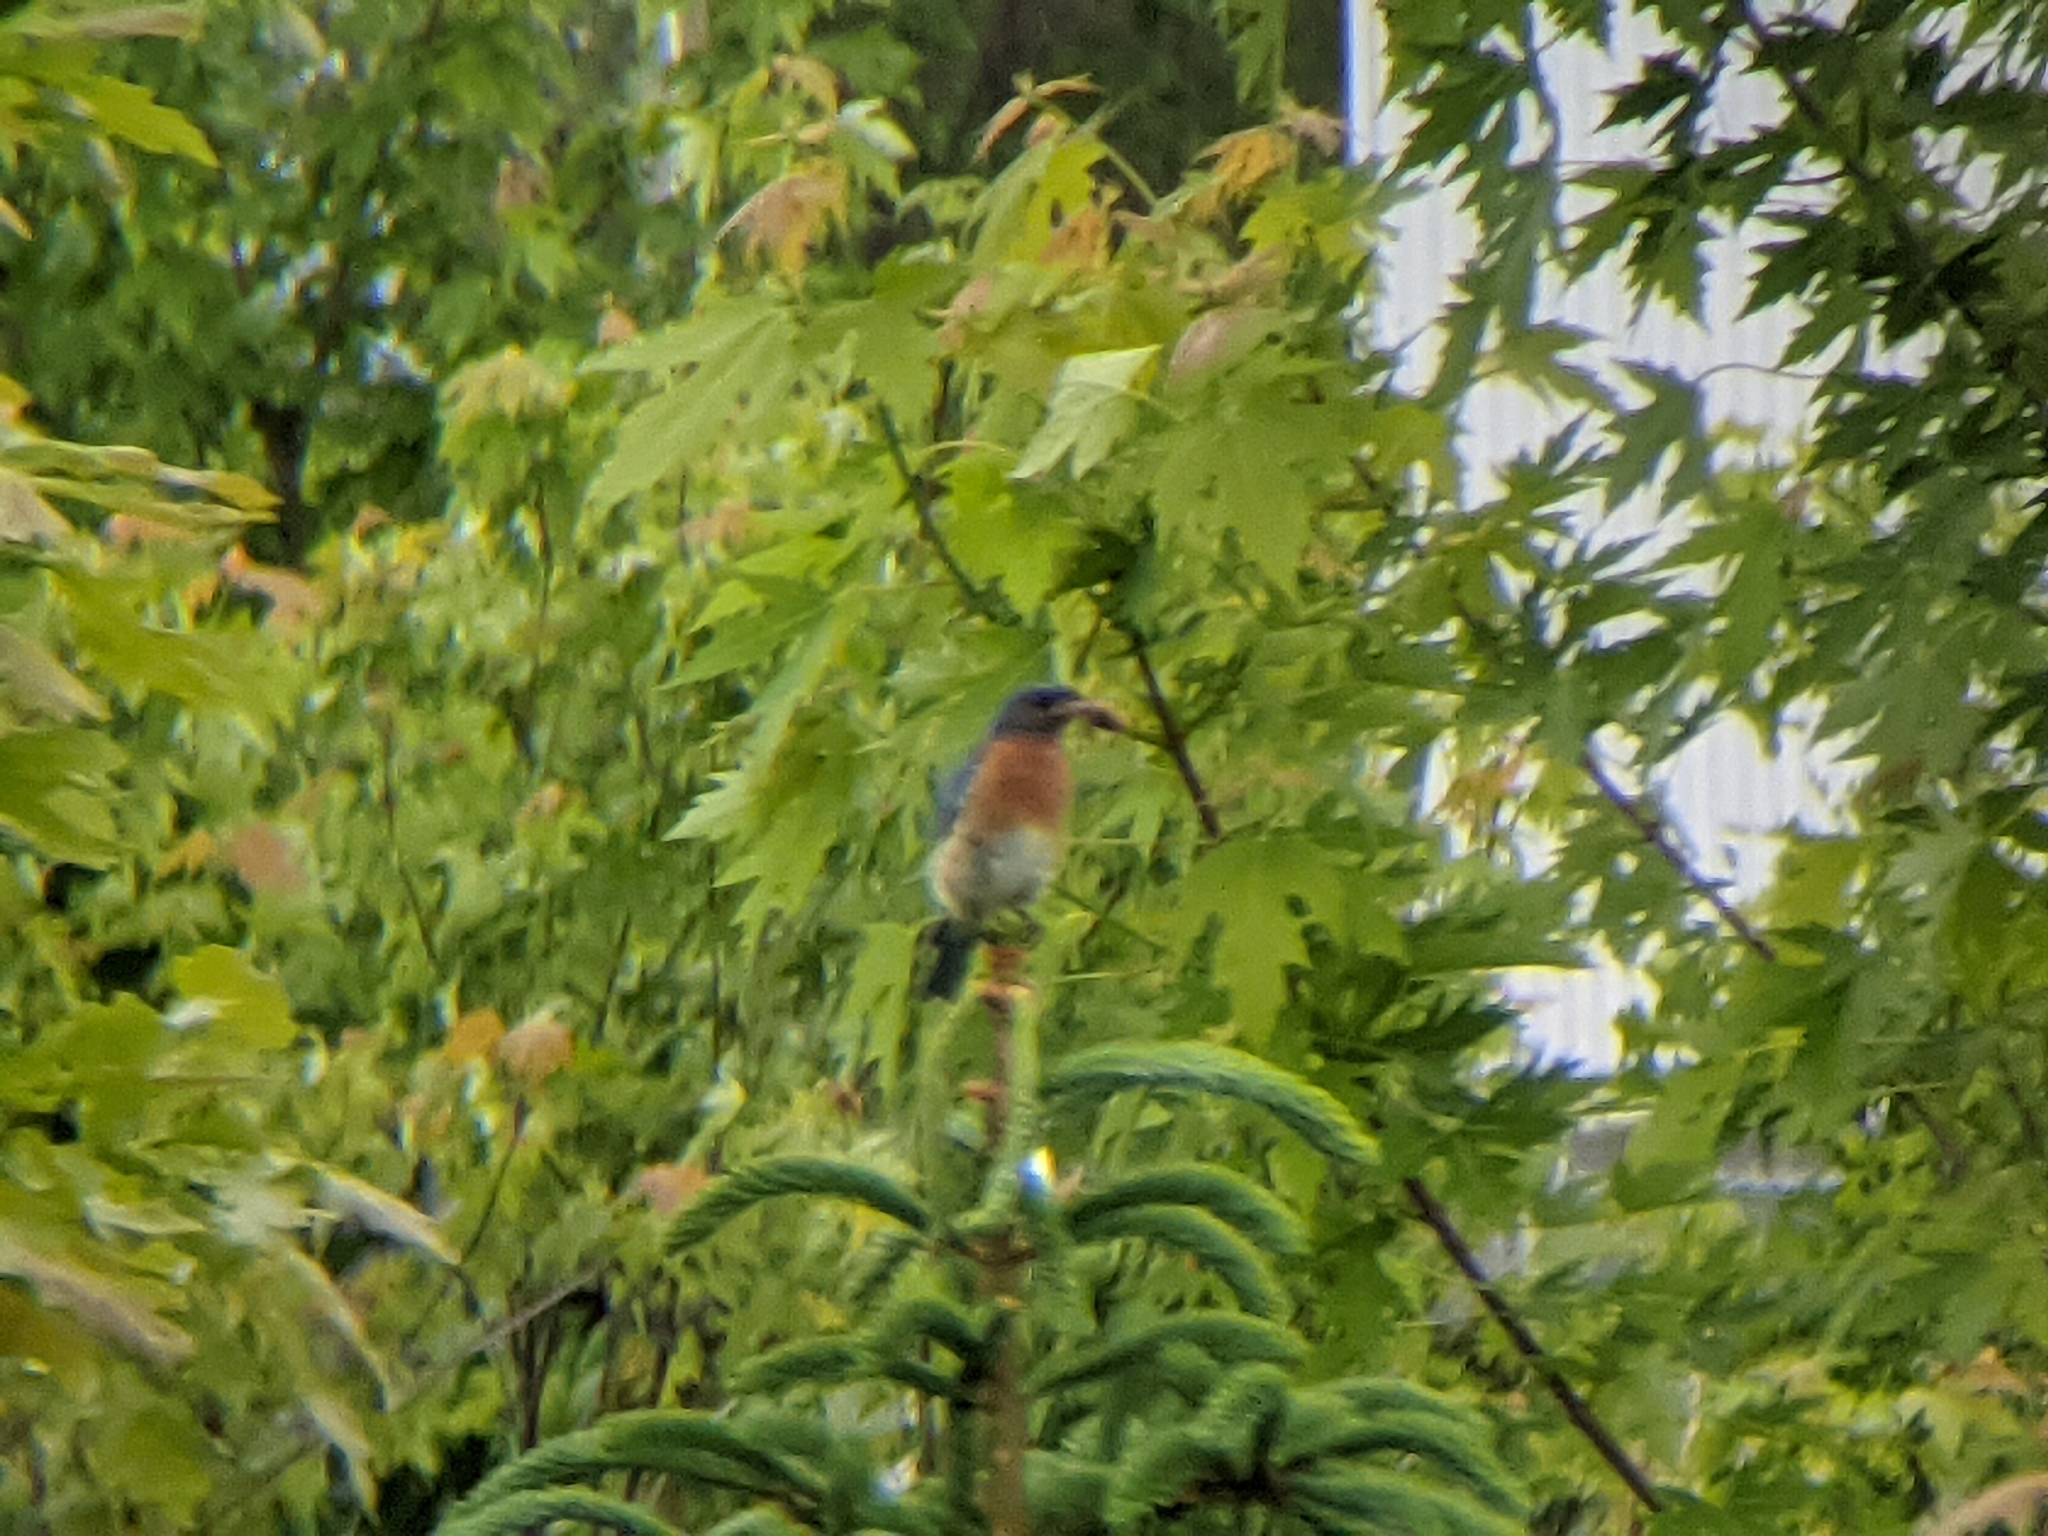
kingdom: Animalia
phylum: Chordata
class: Aves
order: Passeriformes
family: Turdidae
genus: Sialia
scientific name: Sialia sialis
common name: Eastern bluebird
